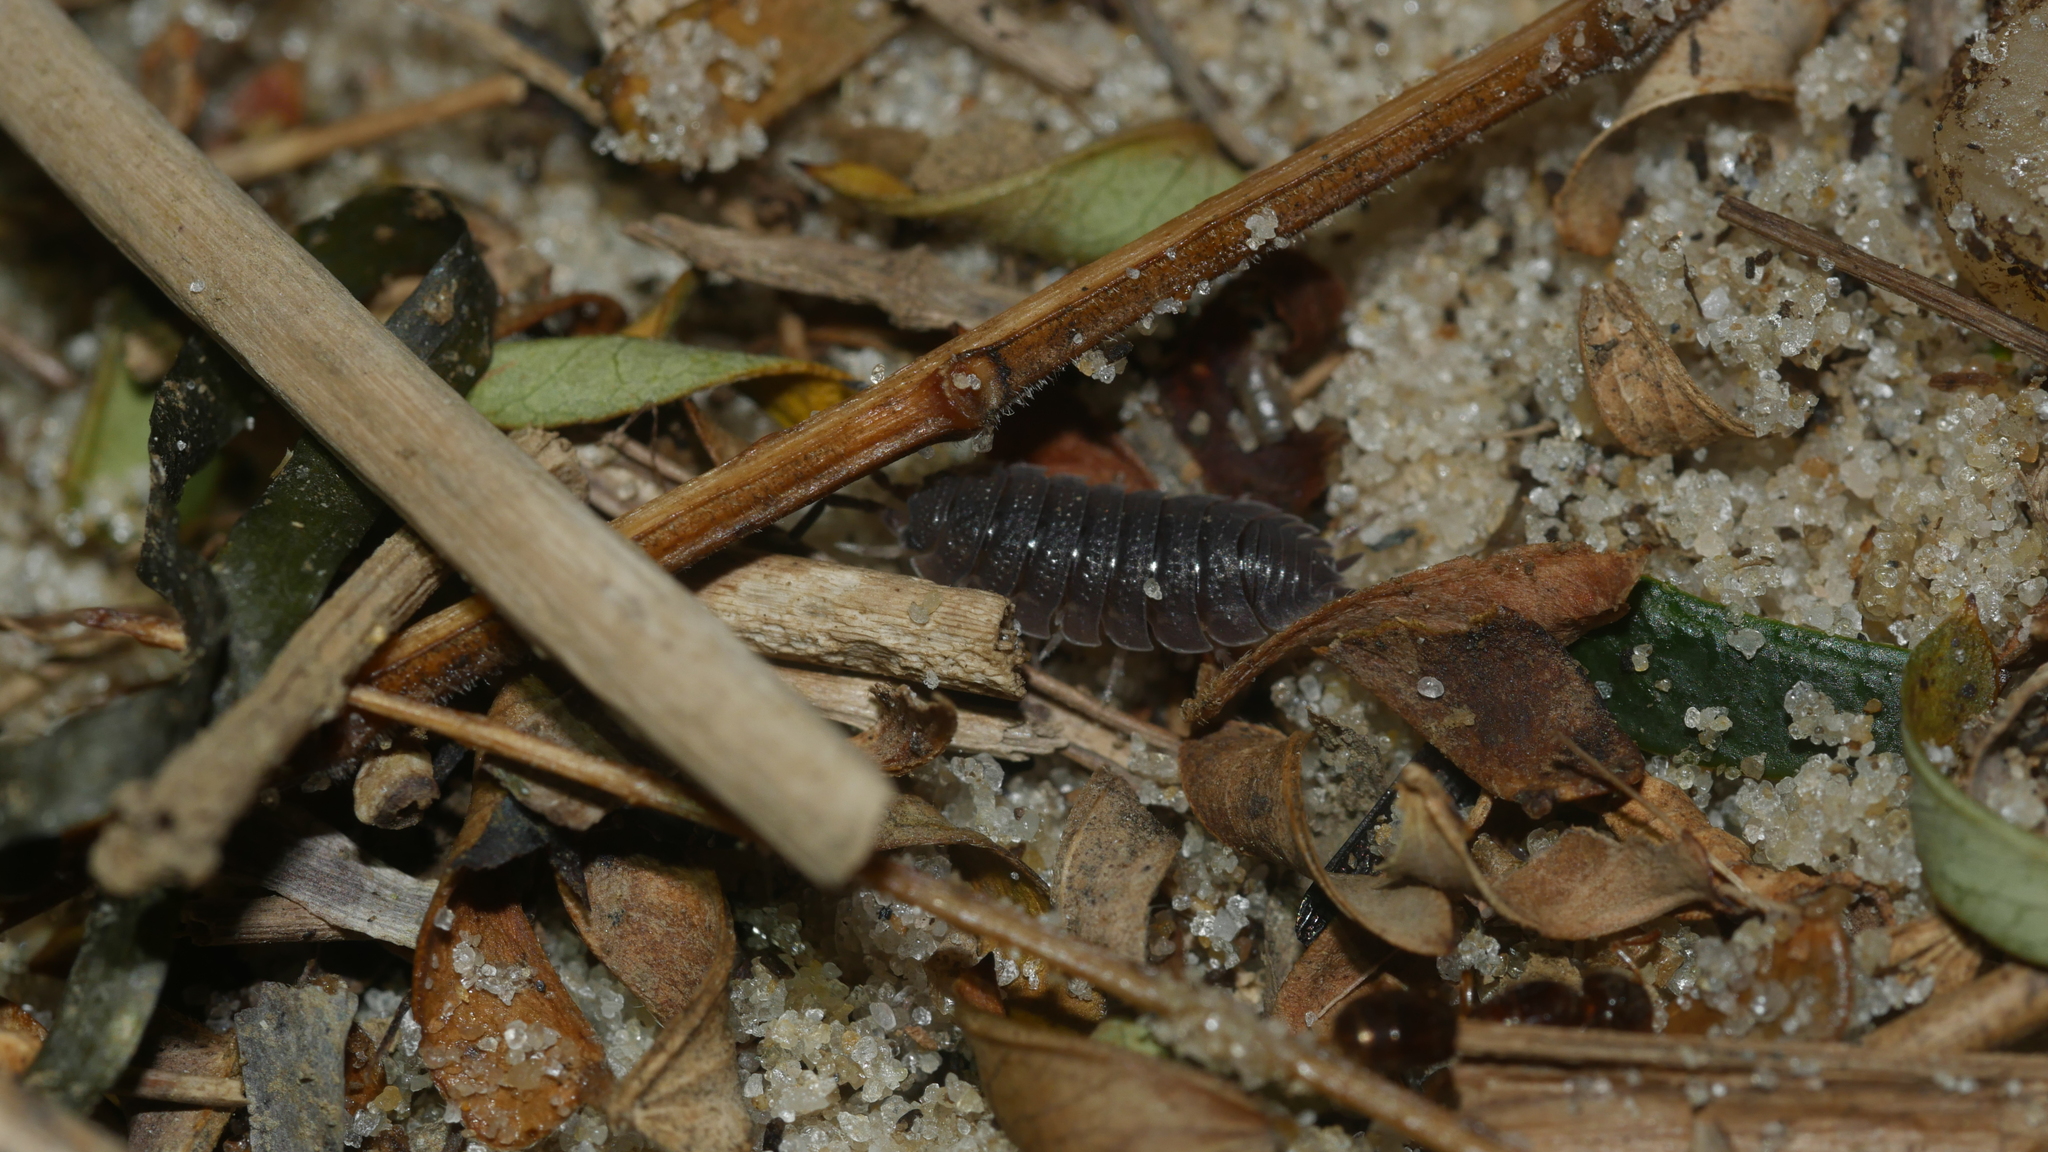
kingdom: Animalia
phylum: Arthropoda
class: Malacostraca
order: Isopoda
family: Porcellionidae
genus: Porcellio
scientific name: Porcellio scaber
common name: Common rough woodlouse
